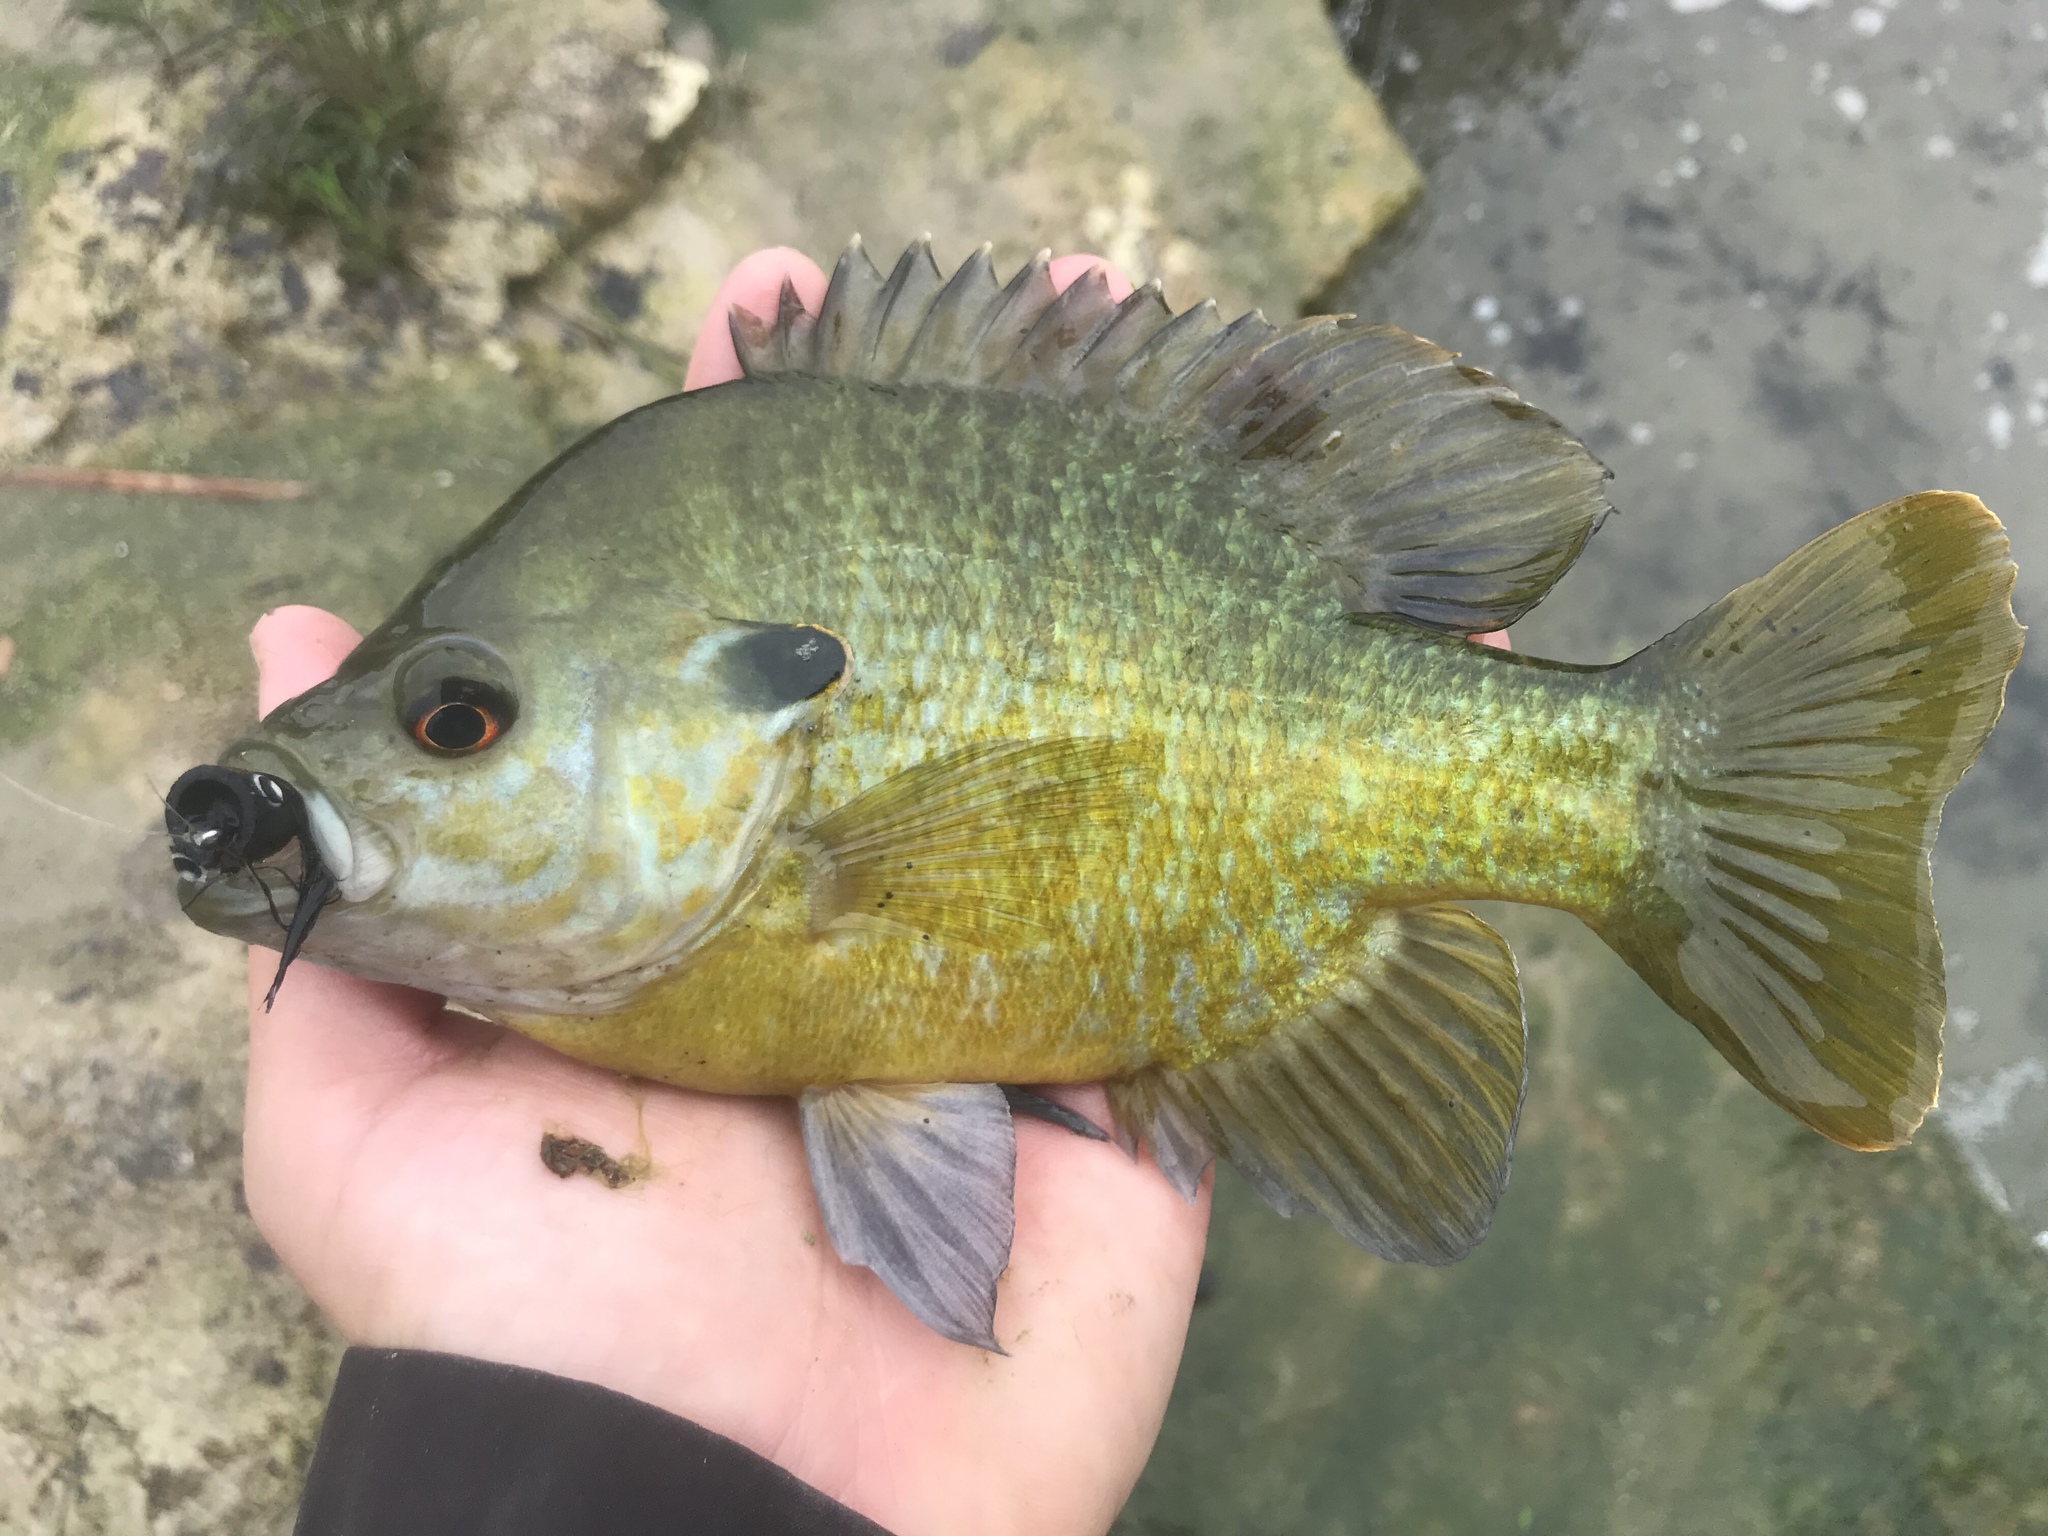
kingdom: Animalia
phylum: Chordata
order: Perciformes
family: Centrarchidae
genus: Lepomis
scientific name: Lepomis
